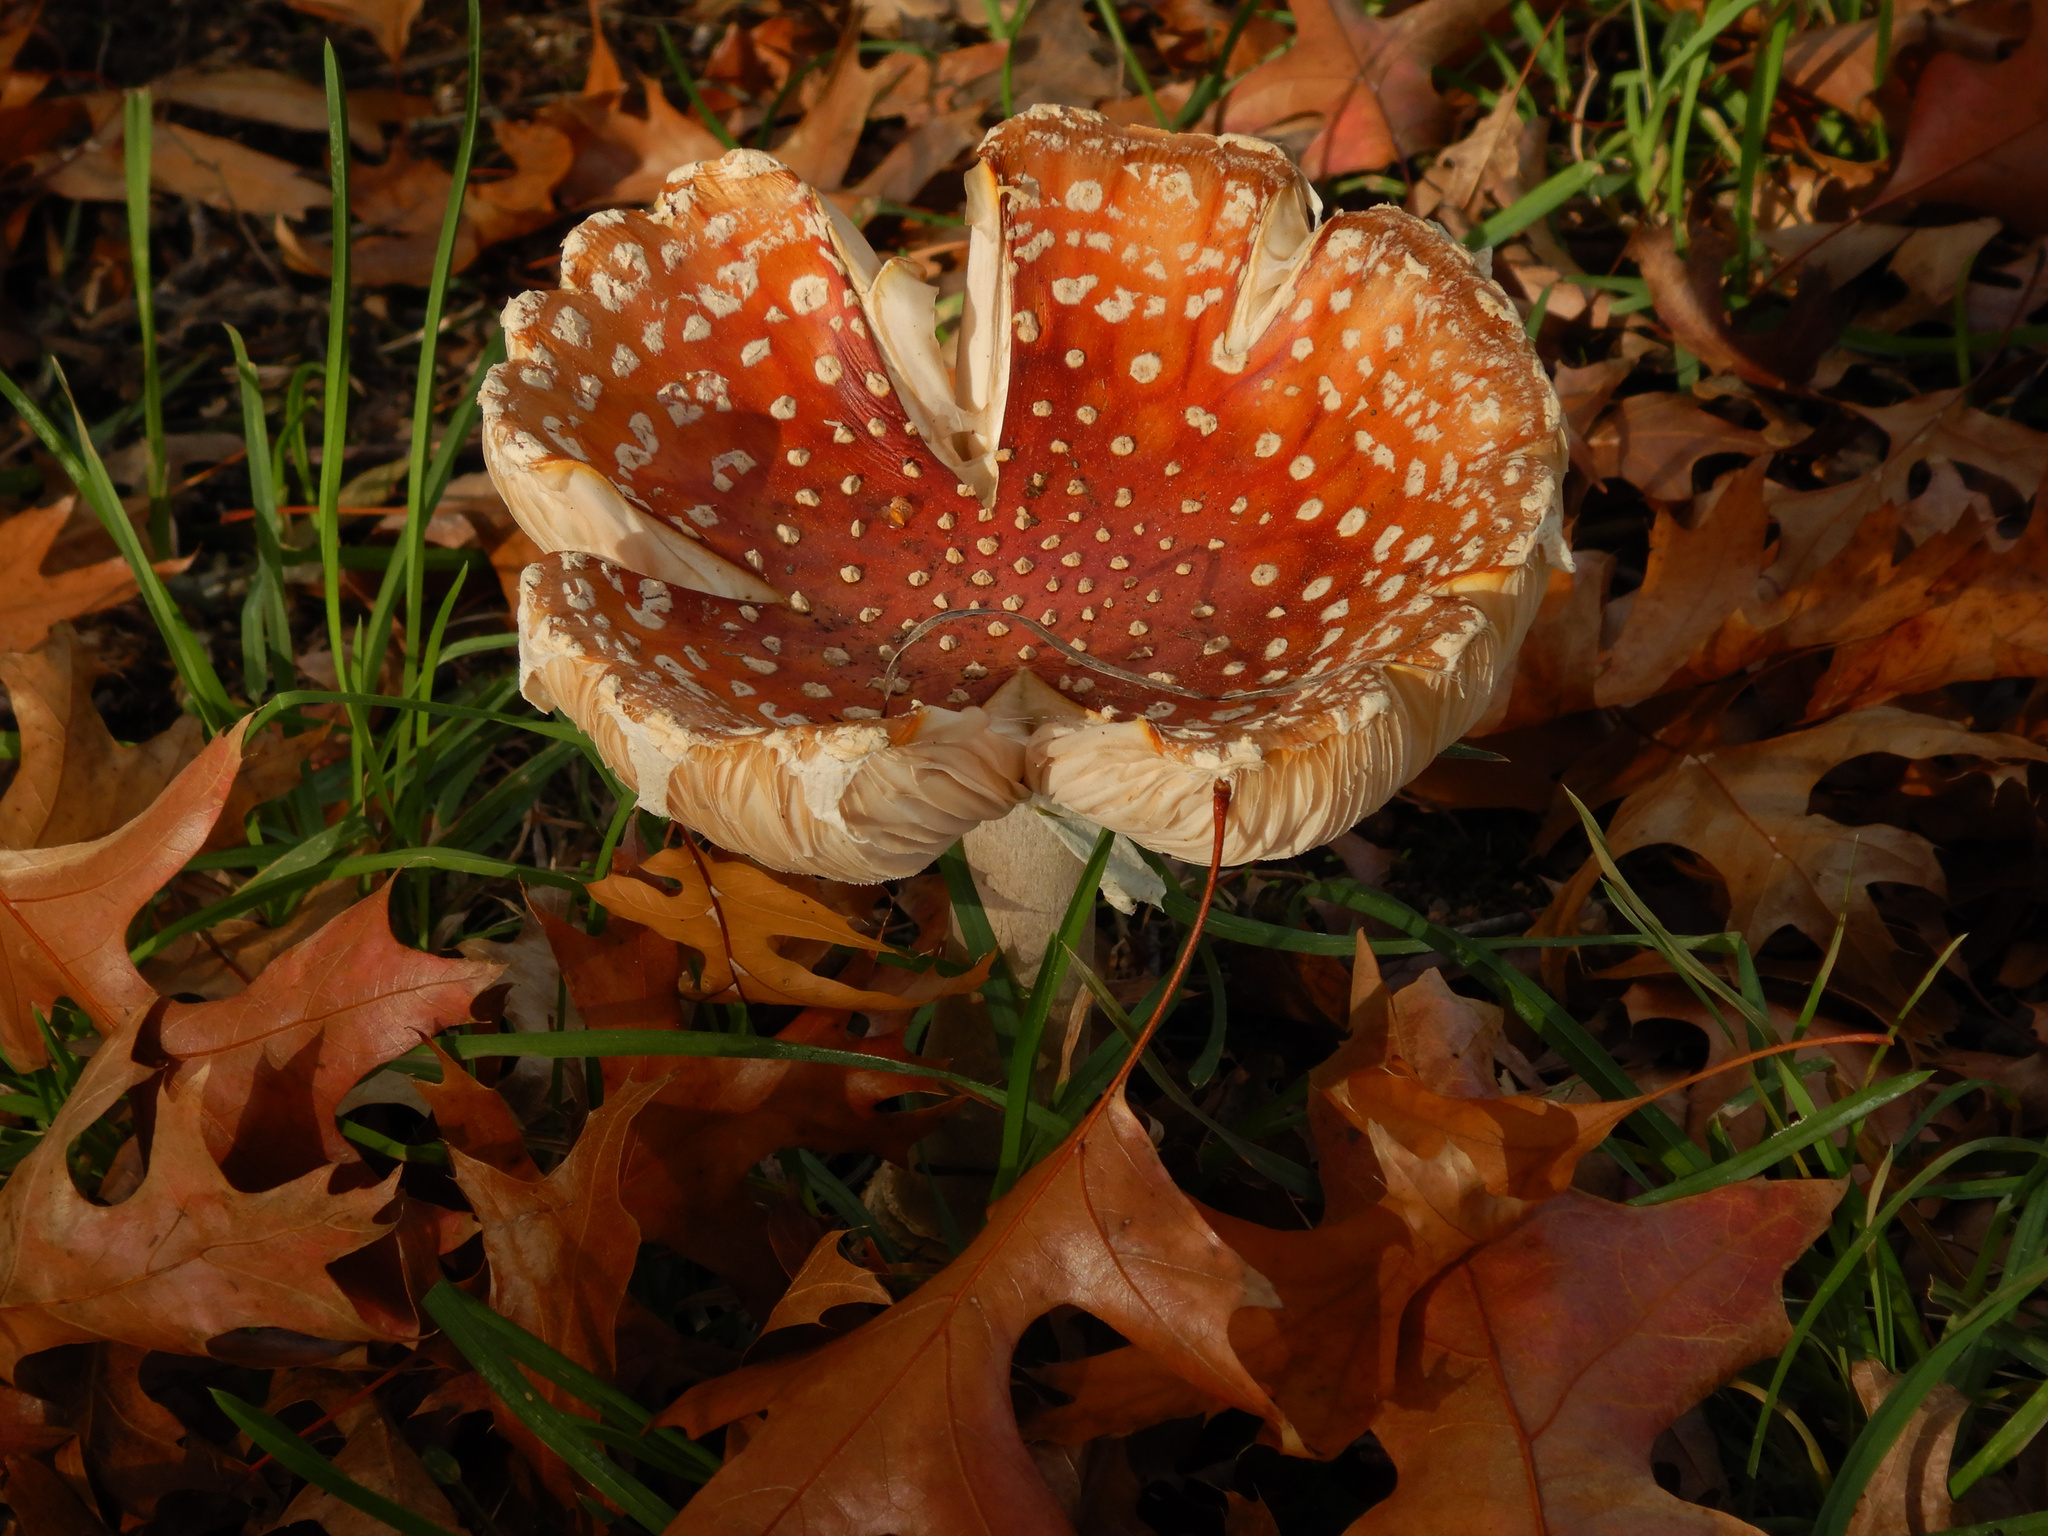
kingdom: Fungi
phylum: Basidiomycota
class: Agaricomycetes
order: Agaricales
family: Amanitaceae
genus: Amanita
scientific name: Amanita muscaria
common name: Fly agaric
